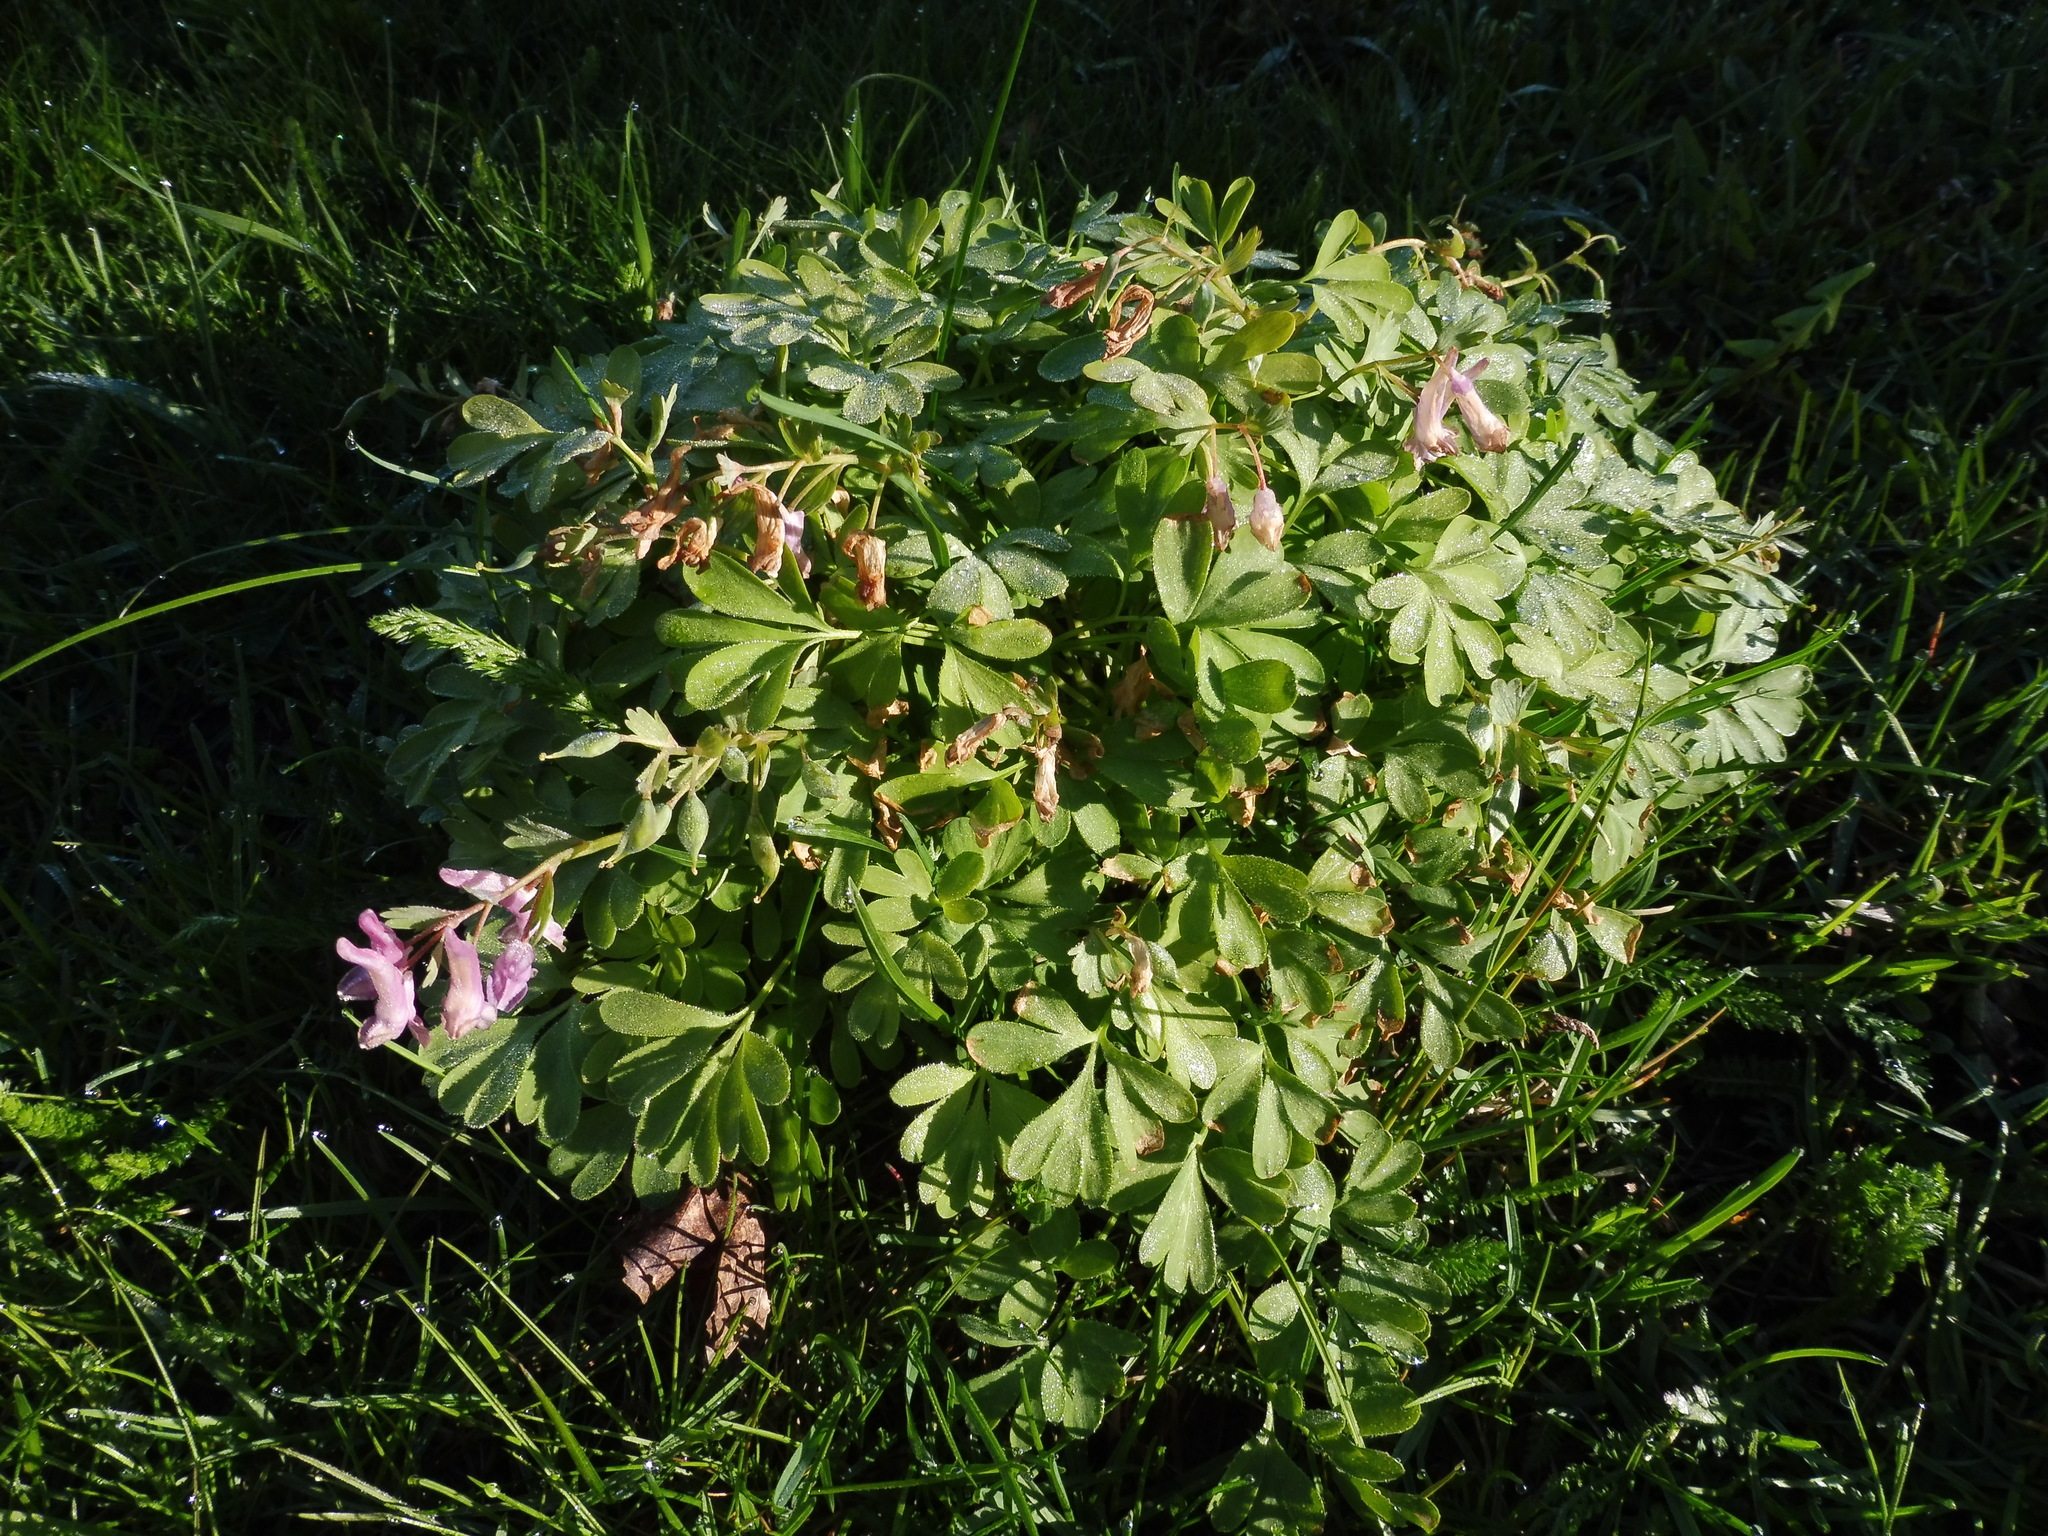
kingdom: Plantae
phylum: Tracheophyta
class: Magnoliopsida
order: Ranunculales
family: Papaveraceae
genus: Corydalis
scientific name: Corydalis solida
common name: Bird-in-a-bush
